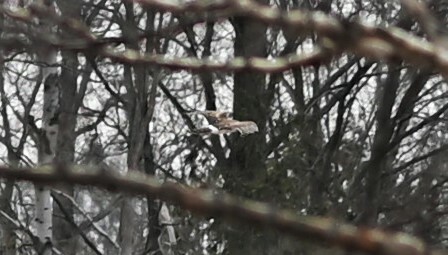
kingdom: Animalia
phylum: Chordata
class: Aves
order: Accipitriformes
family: Accipitridae
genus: Circus
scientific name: Circus cyaneus
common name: Hen harrier
